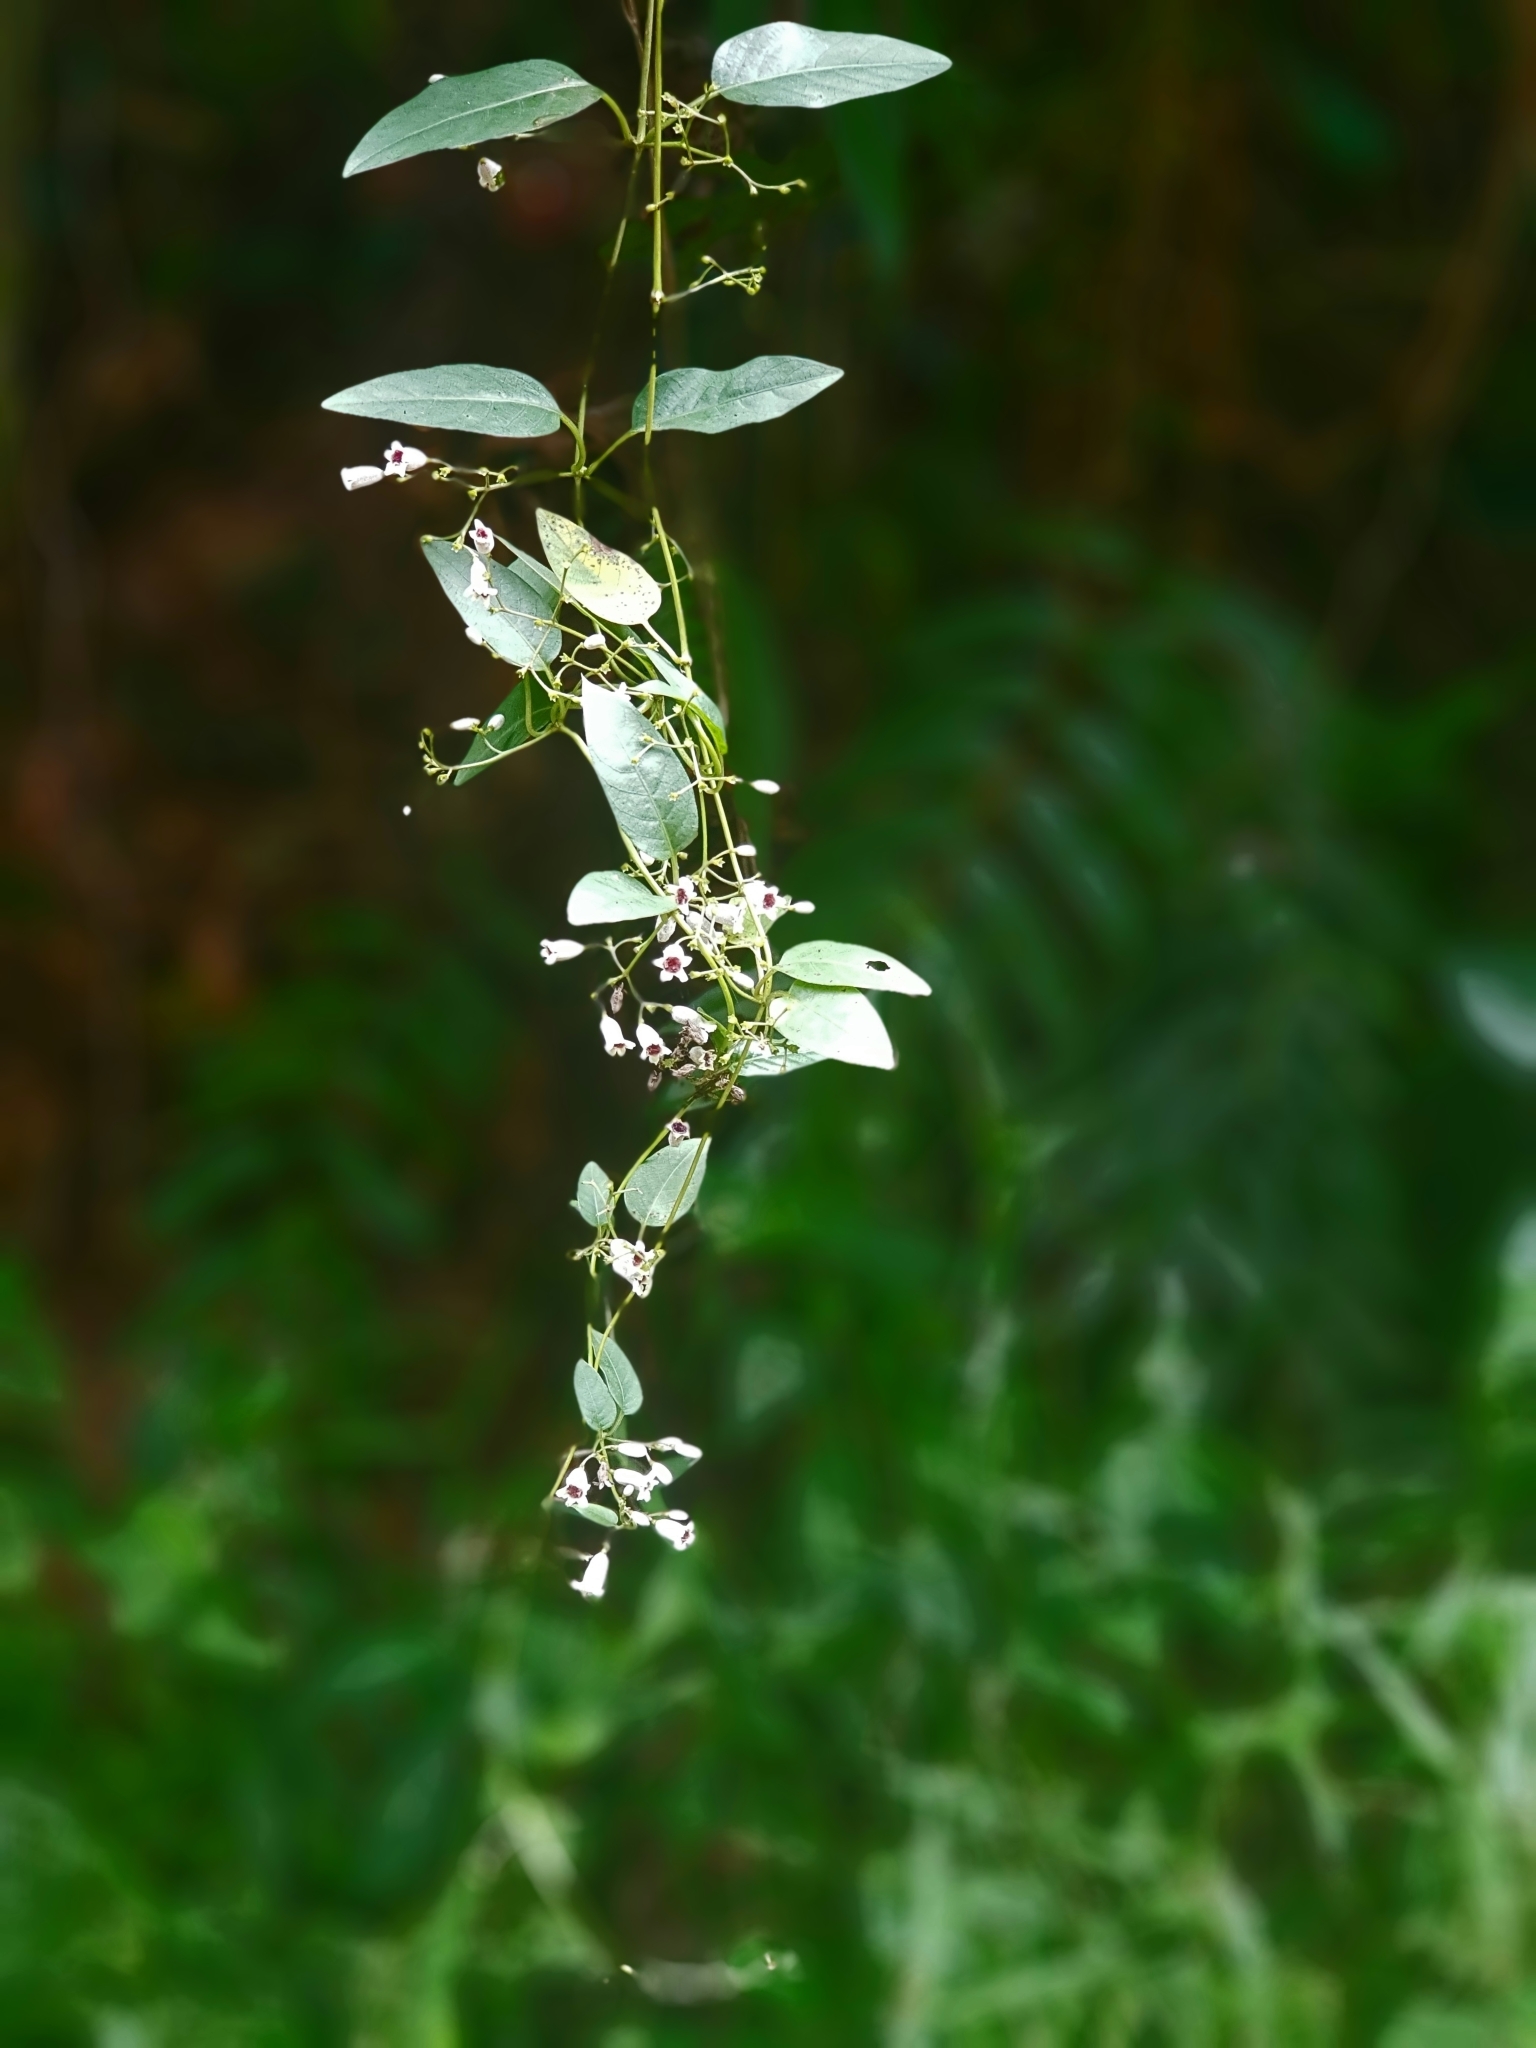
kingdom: Plantae
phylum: Tracheophyta
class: Magnoliopsida
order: Gentianales
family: Rubiaceae
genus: Paederia
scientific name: Paederia foetida
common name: Stinkvine
